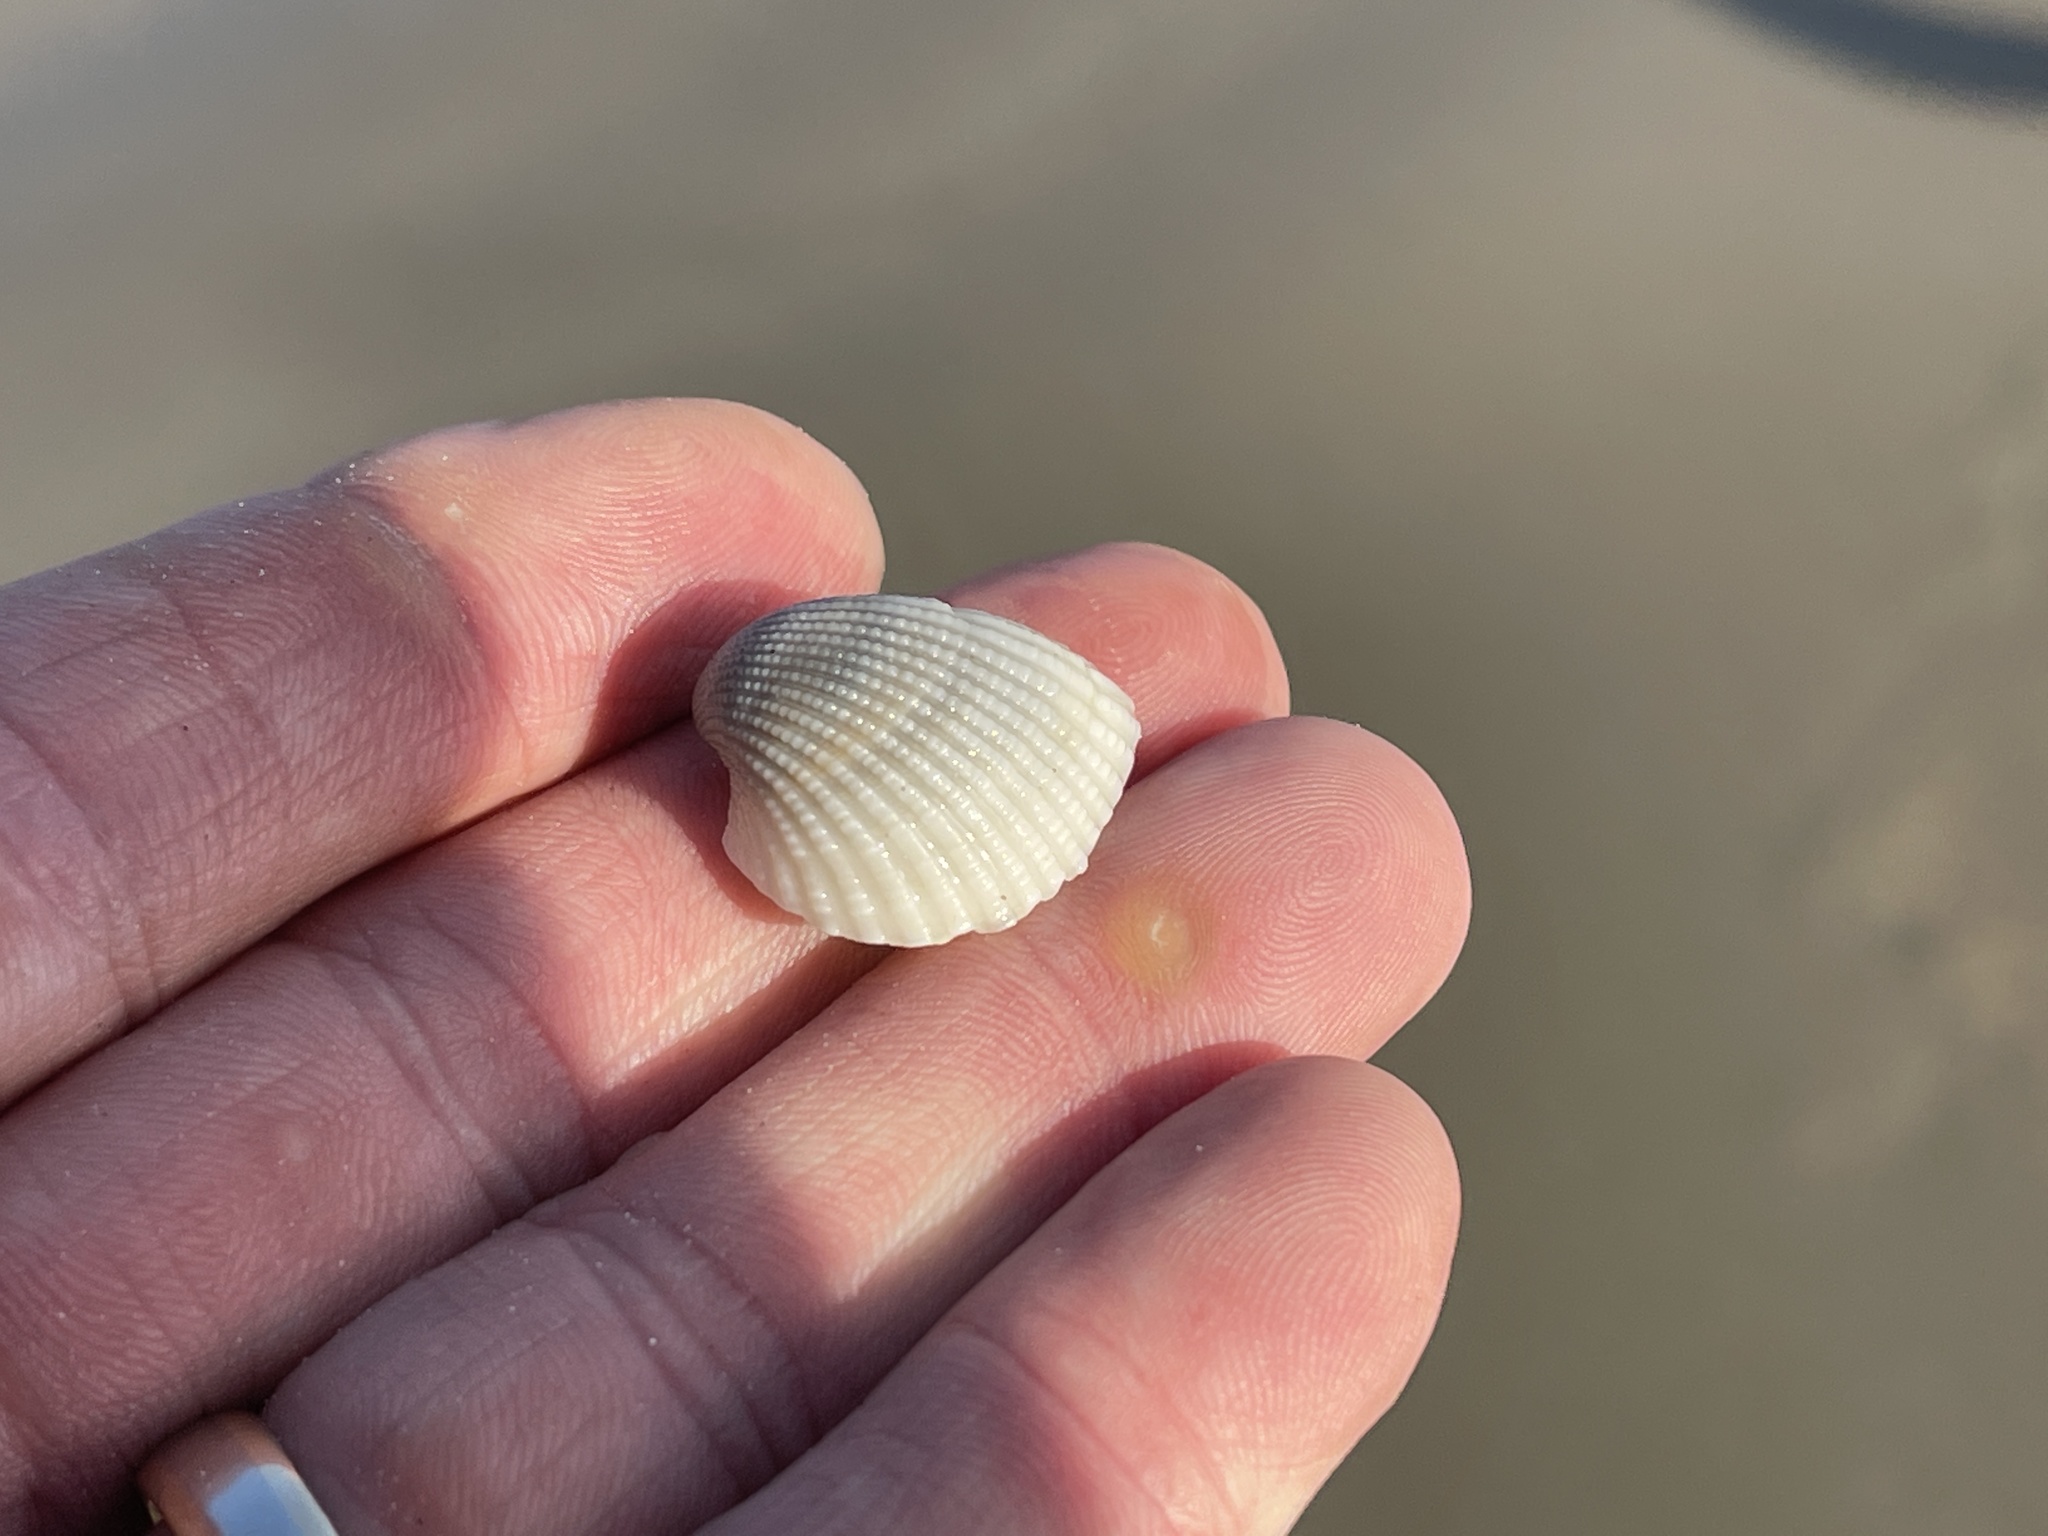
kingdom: Animalia
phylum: Mollusca
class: Bivalvia
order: Arcida
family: Arcidae
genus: Anadara
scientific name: Anadara chemnitzii
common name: Chemnitz's triangular ark
